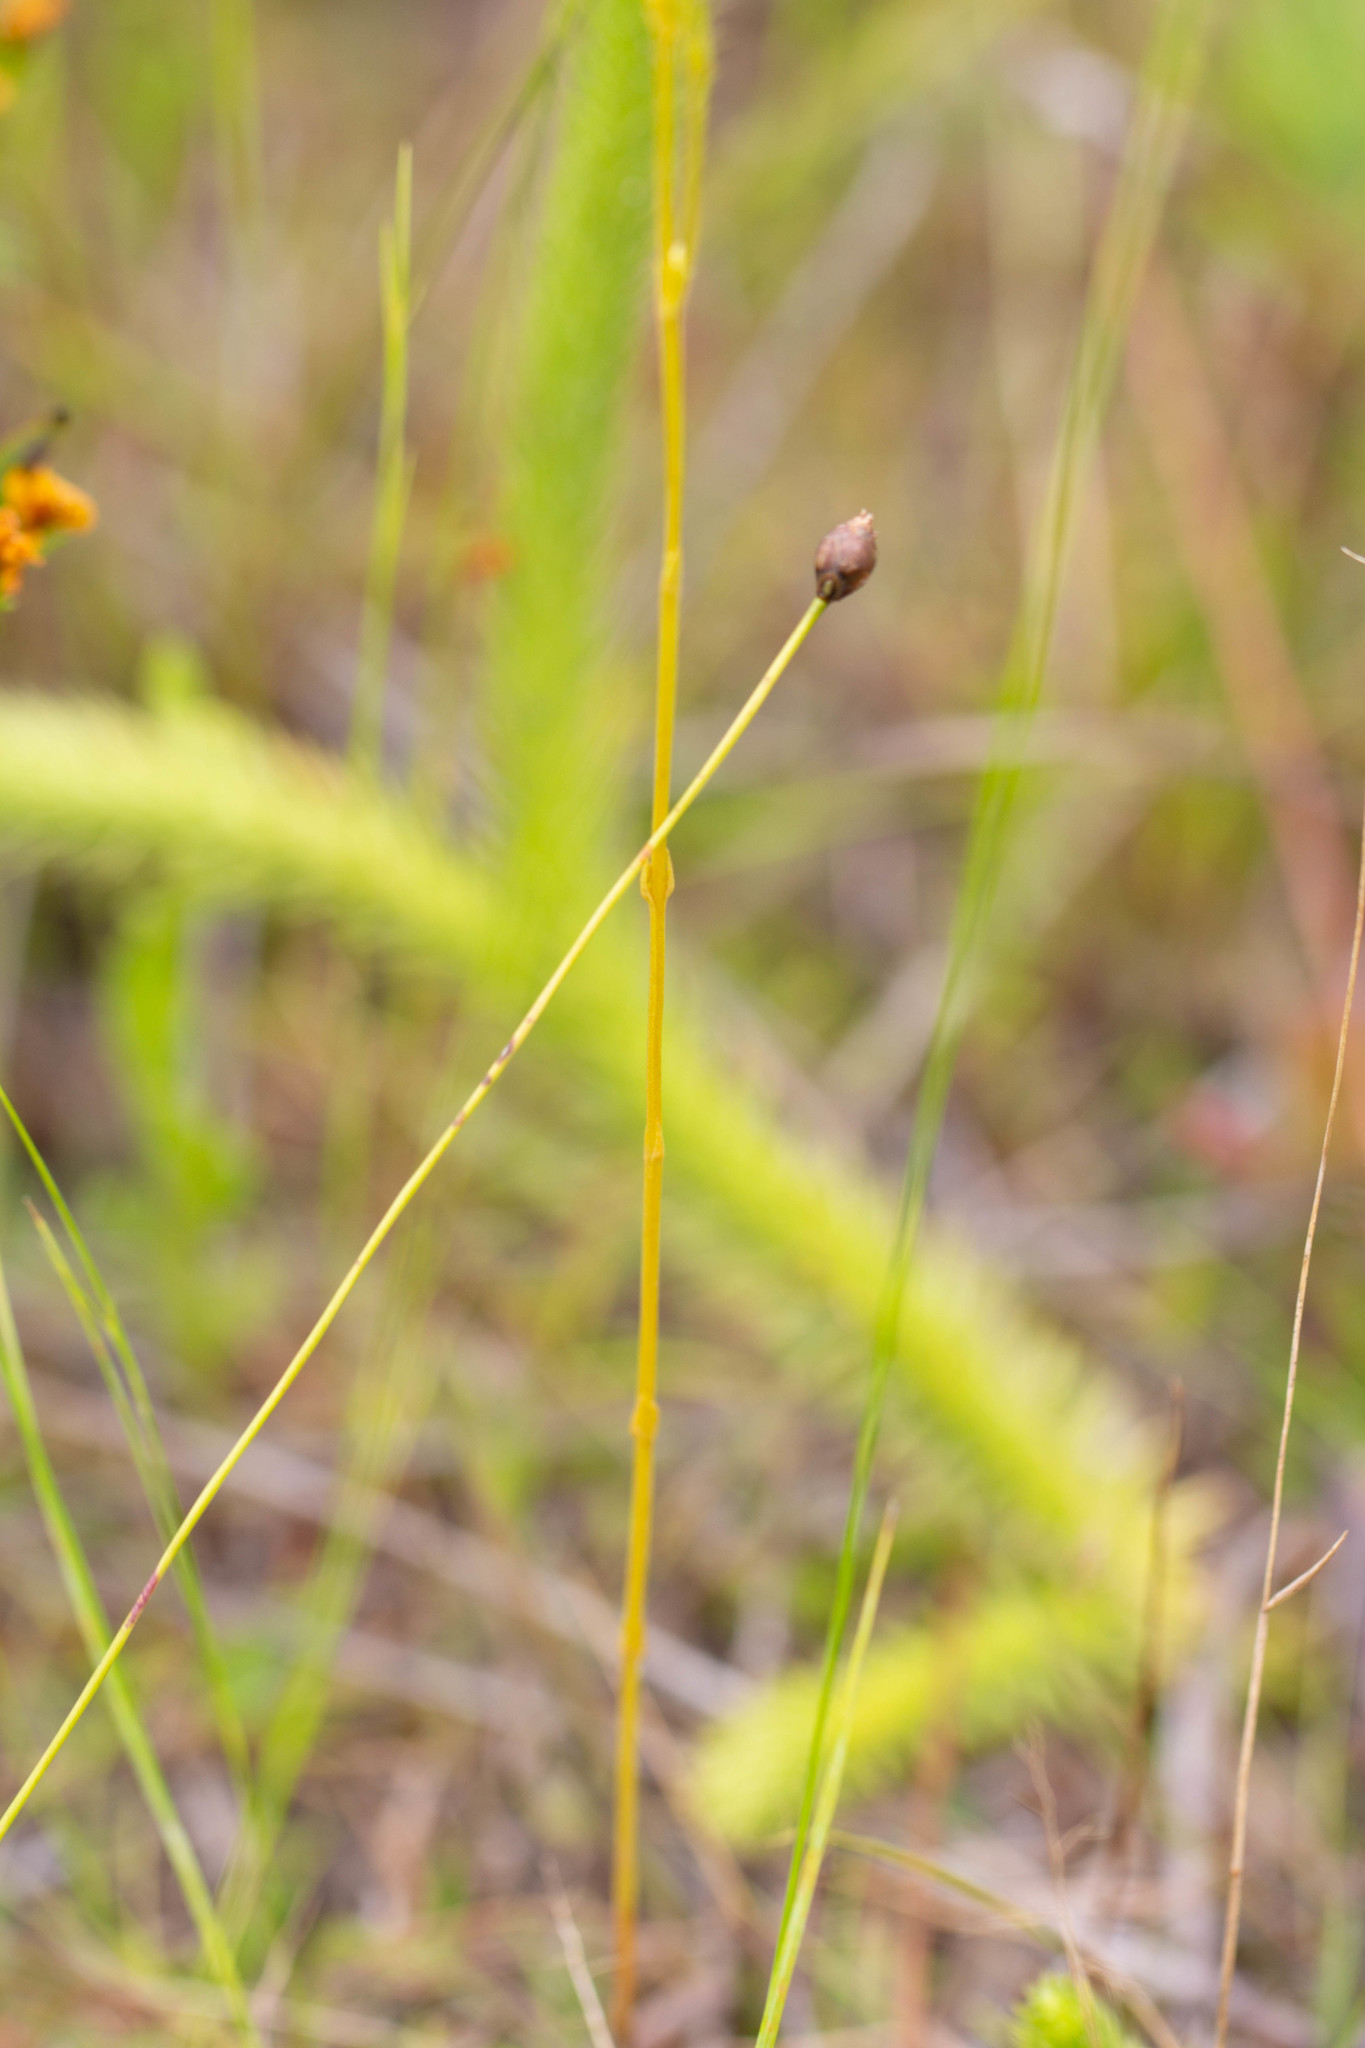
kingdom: Plantae
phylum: Tracheophyta
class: Magnoliopsida
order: Gentianales
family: Gentianaceae
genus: Bartonia
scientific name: Bartonia paniculata
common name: Branched bartonia
